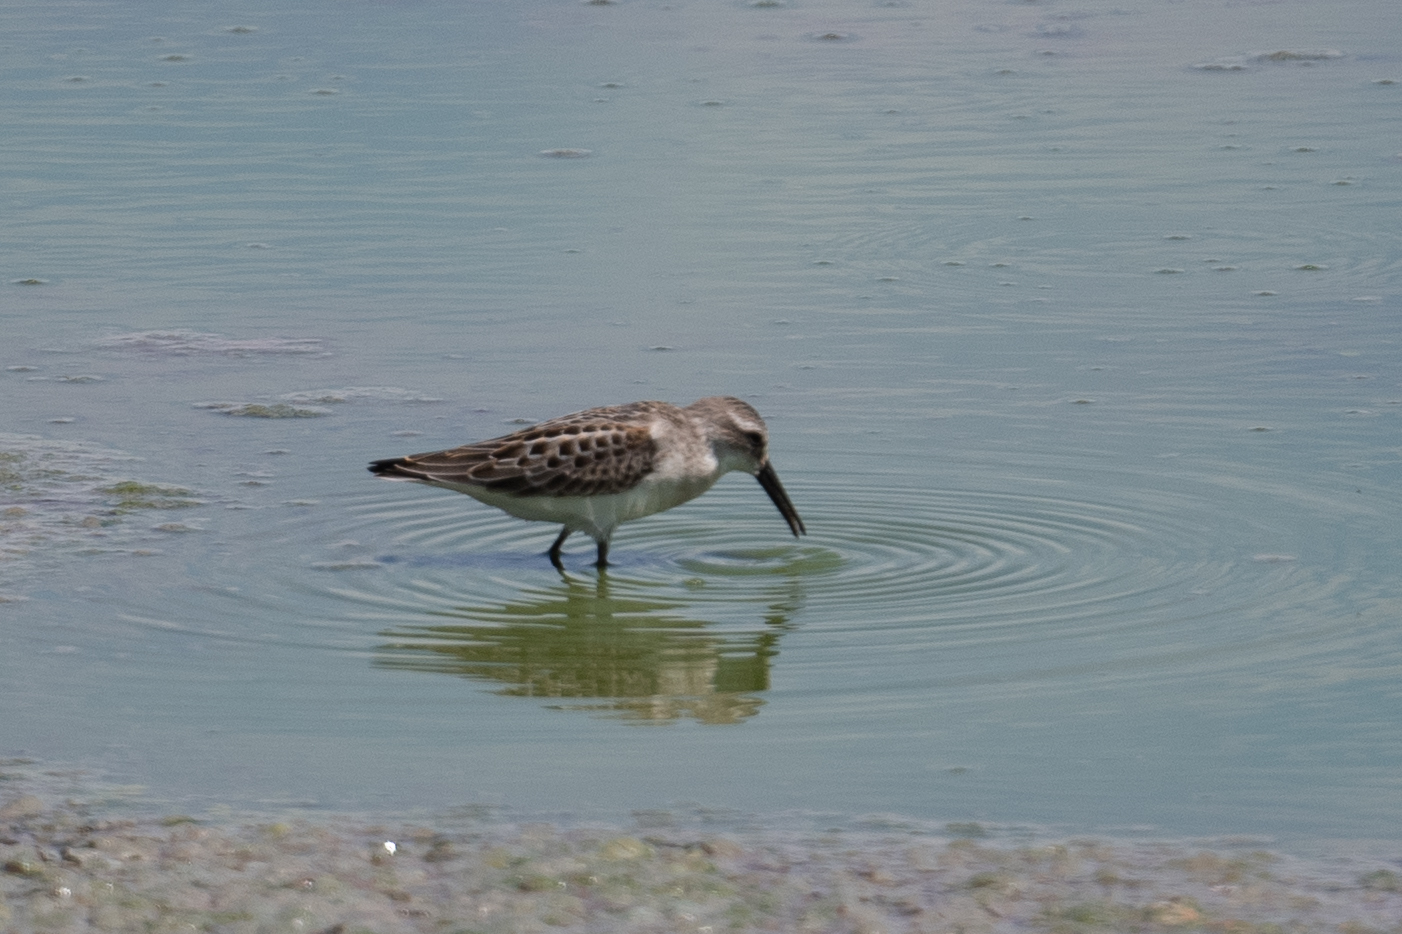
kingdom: Animalia
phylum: Chordata
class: Aves
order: Charadriiformes
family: Scolopacidae
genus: Calidris
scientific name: Calidris mauri
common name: Western sandpiper
